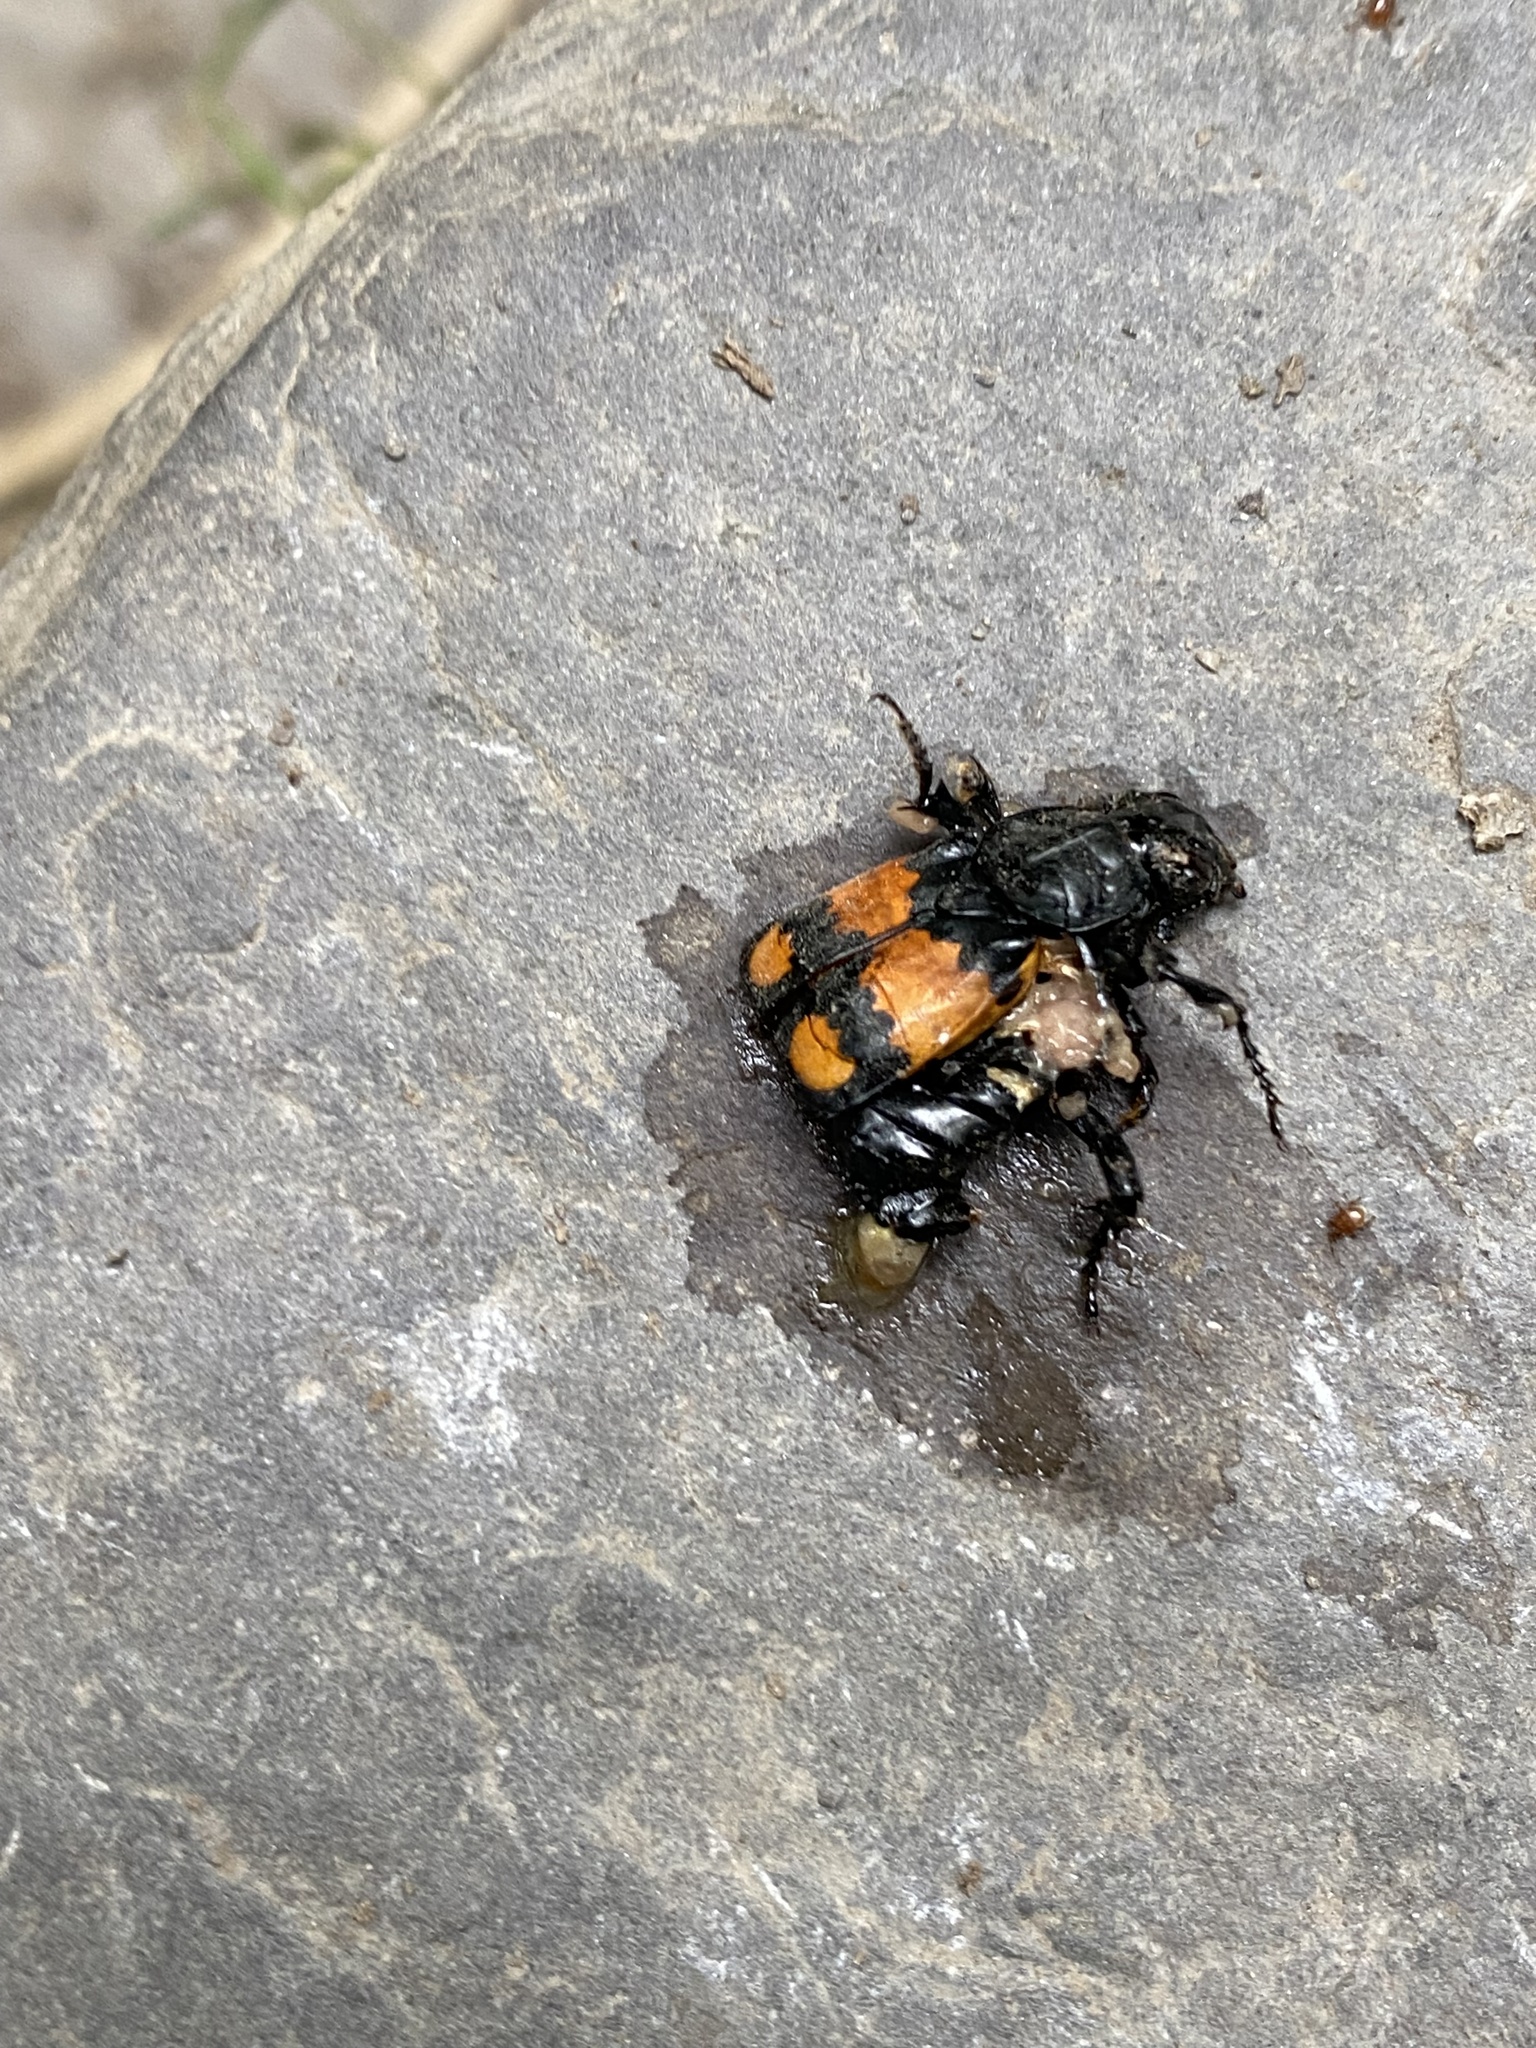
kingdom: Animalia
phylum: Arthropoda
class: Insecta
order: Coleoptera
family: Staphylinidae
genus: Nicrophorus
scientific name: Nicrophorus vespilloides
